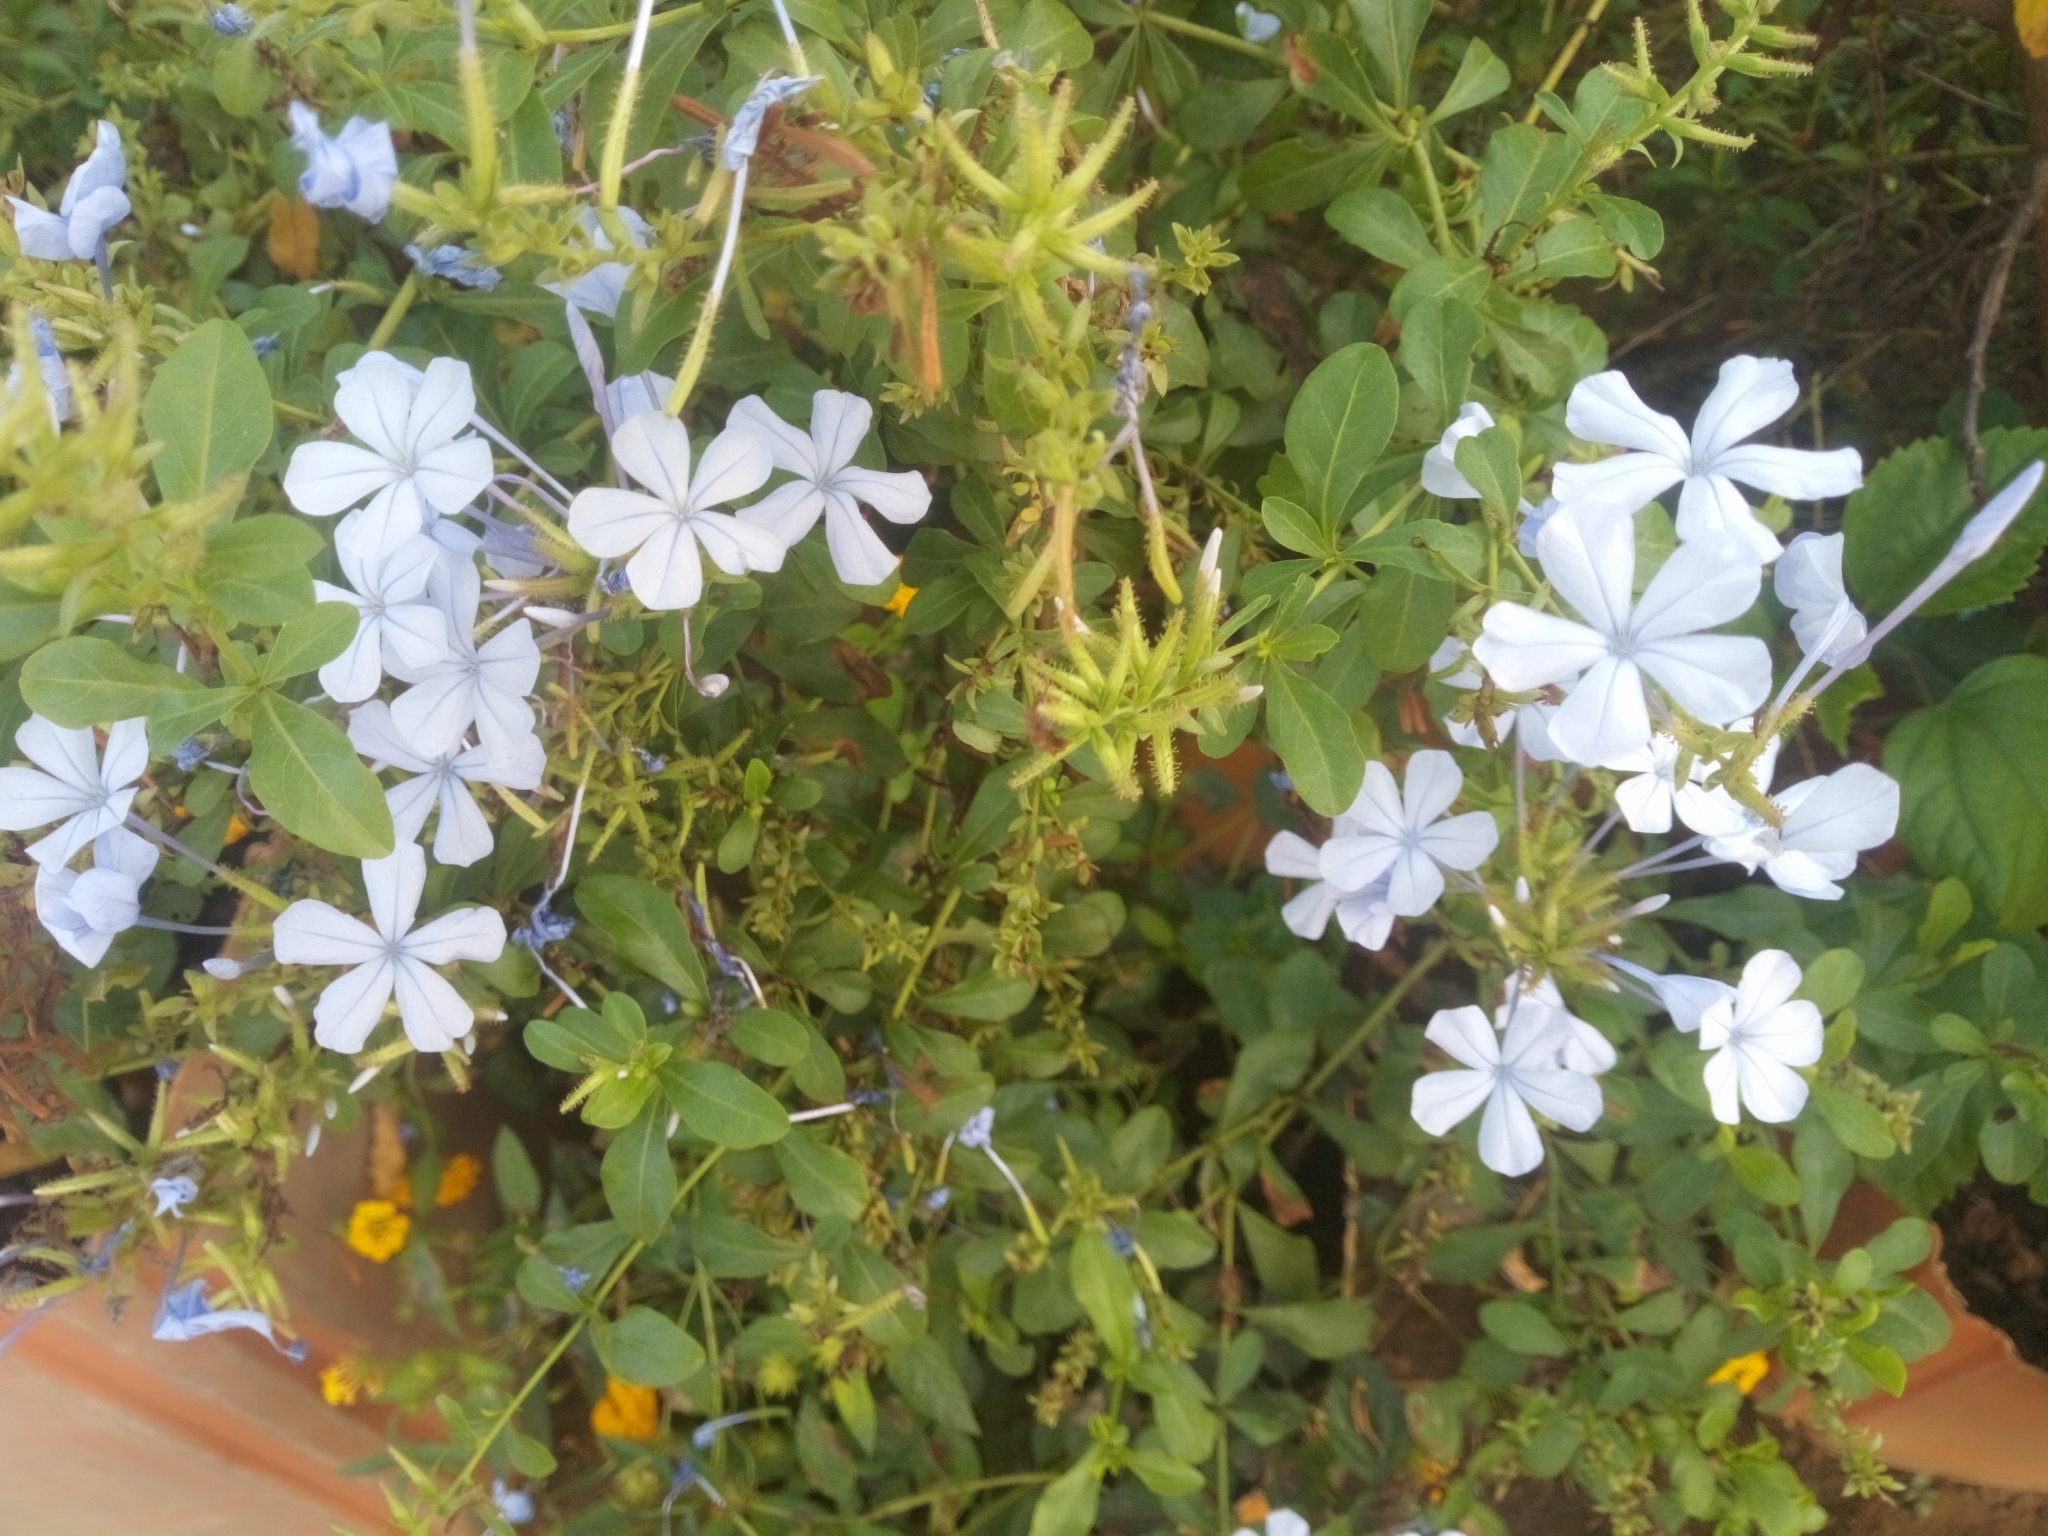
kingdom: Plantae
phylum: Tracheophyta
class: Magnoliopsida
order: Caryophyllales
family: Plumbaginaceae
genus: Plumbago
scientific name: Plumbago auriculata
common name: Cape leadwort
